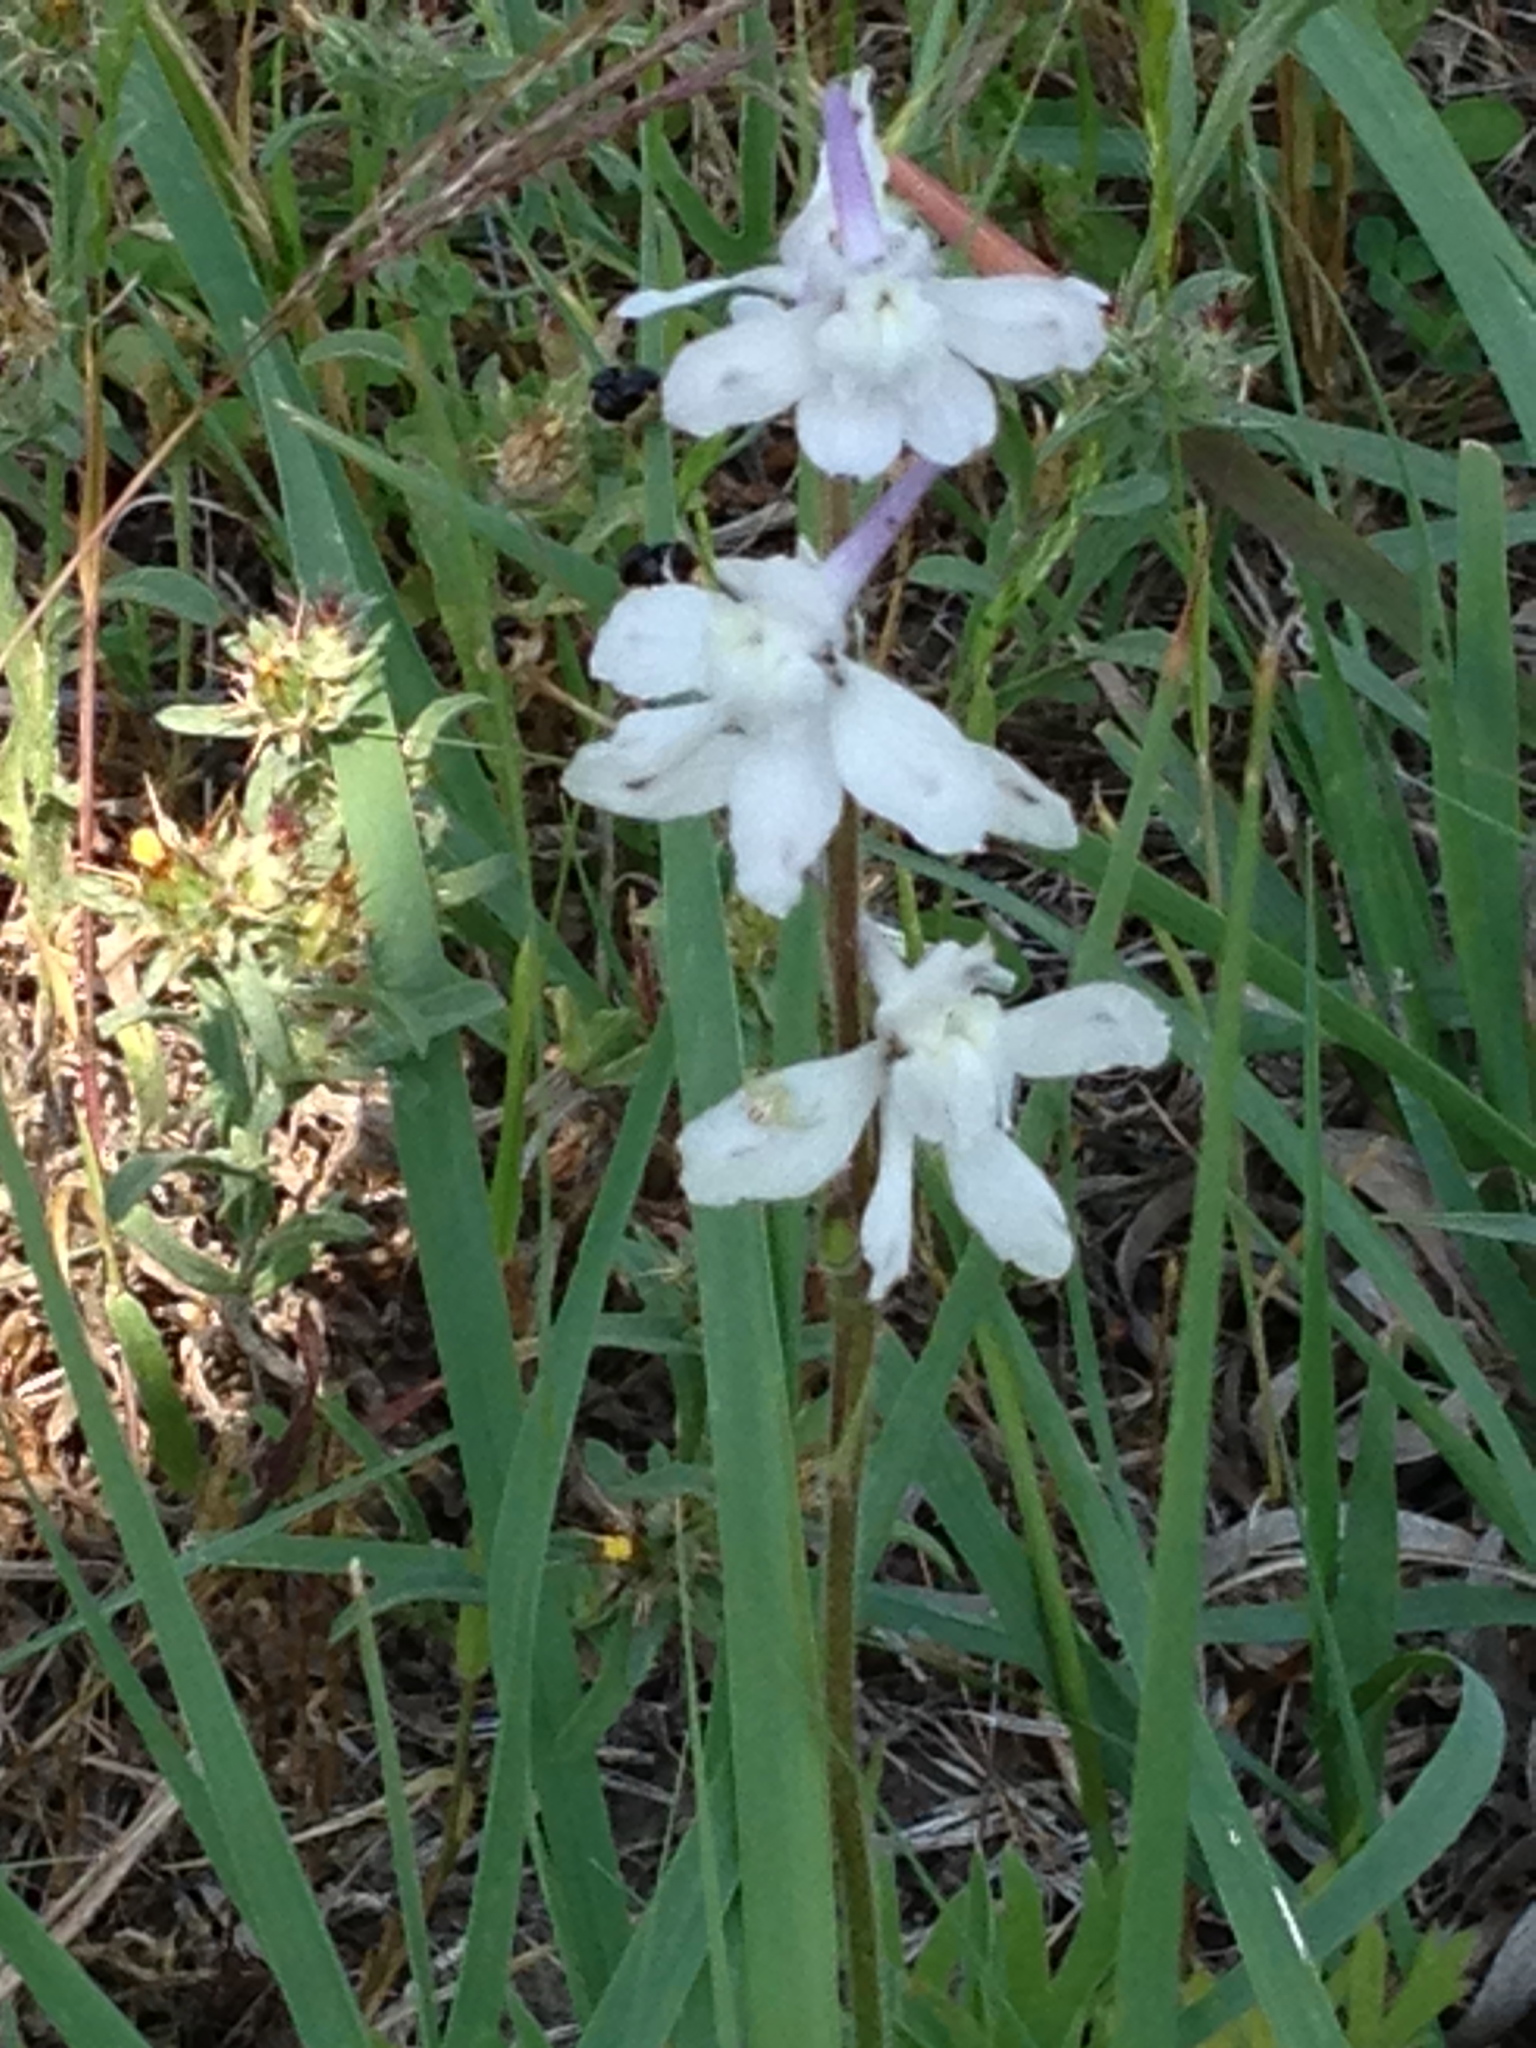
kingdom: Plantae
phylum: Tracheophyta
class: Magnoliopsida
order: Ranunculales
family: Ranunculaceae
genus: Delphinium
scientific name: Delphinium carolinianum
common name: Carolina larkspur
